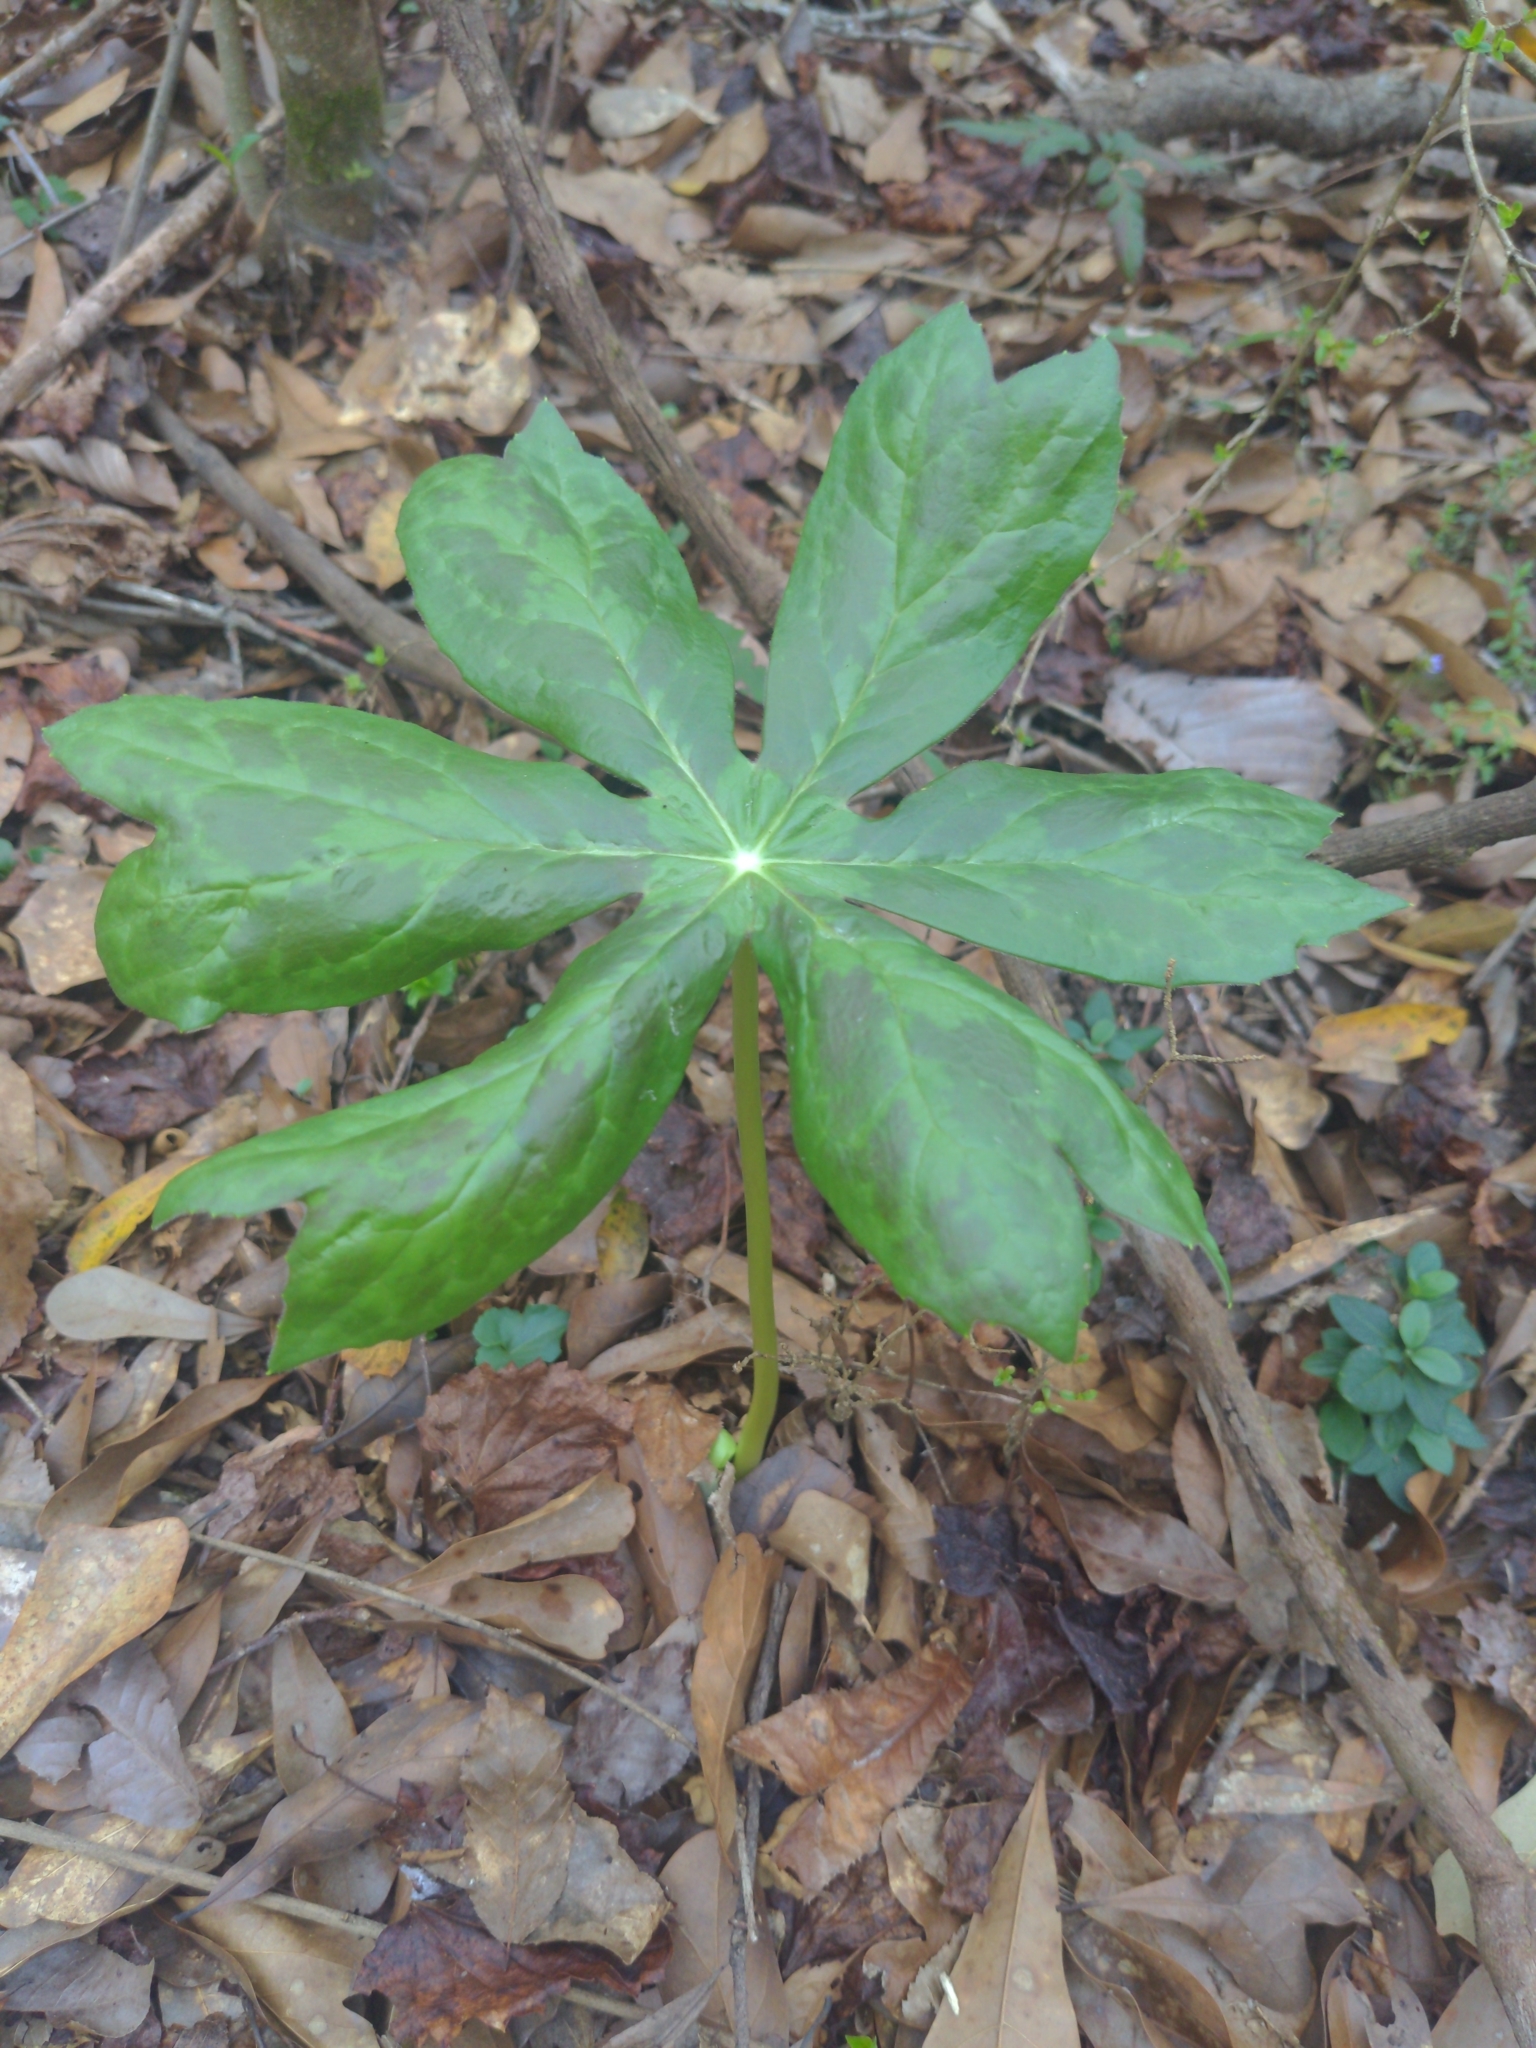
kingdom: Plantae
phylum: Tracheophyta
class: Magnoliopsida
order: Ranunculales
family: Berberidaceae
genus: Podophyllum
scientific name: Podophyllum peltatum
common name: Wild mandrake
